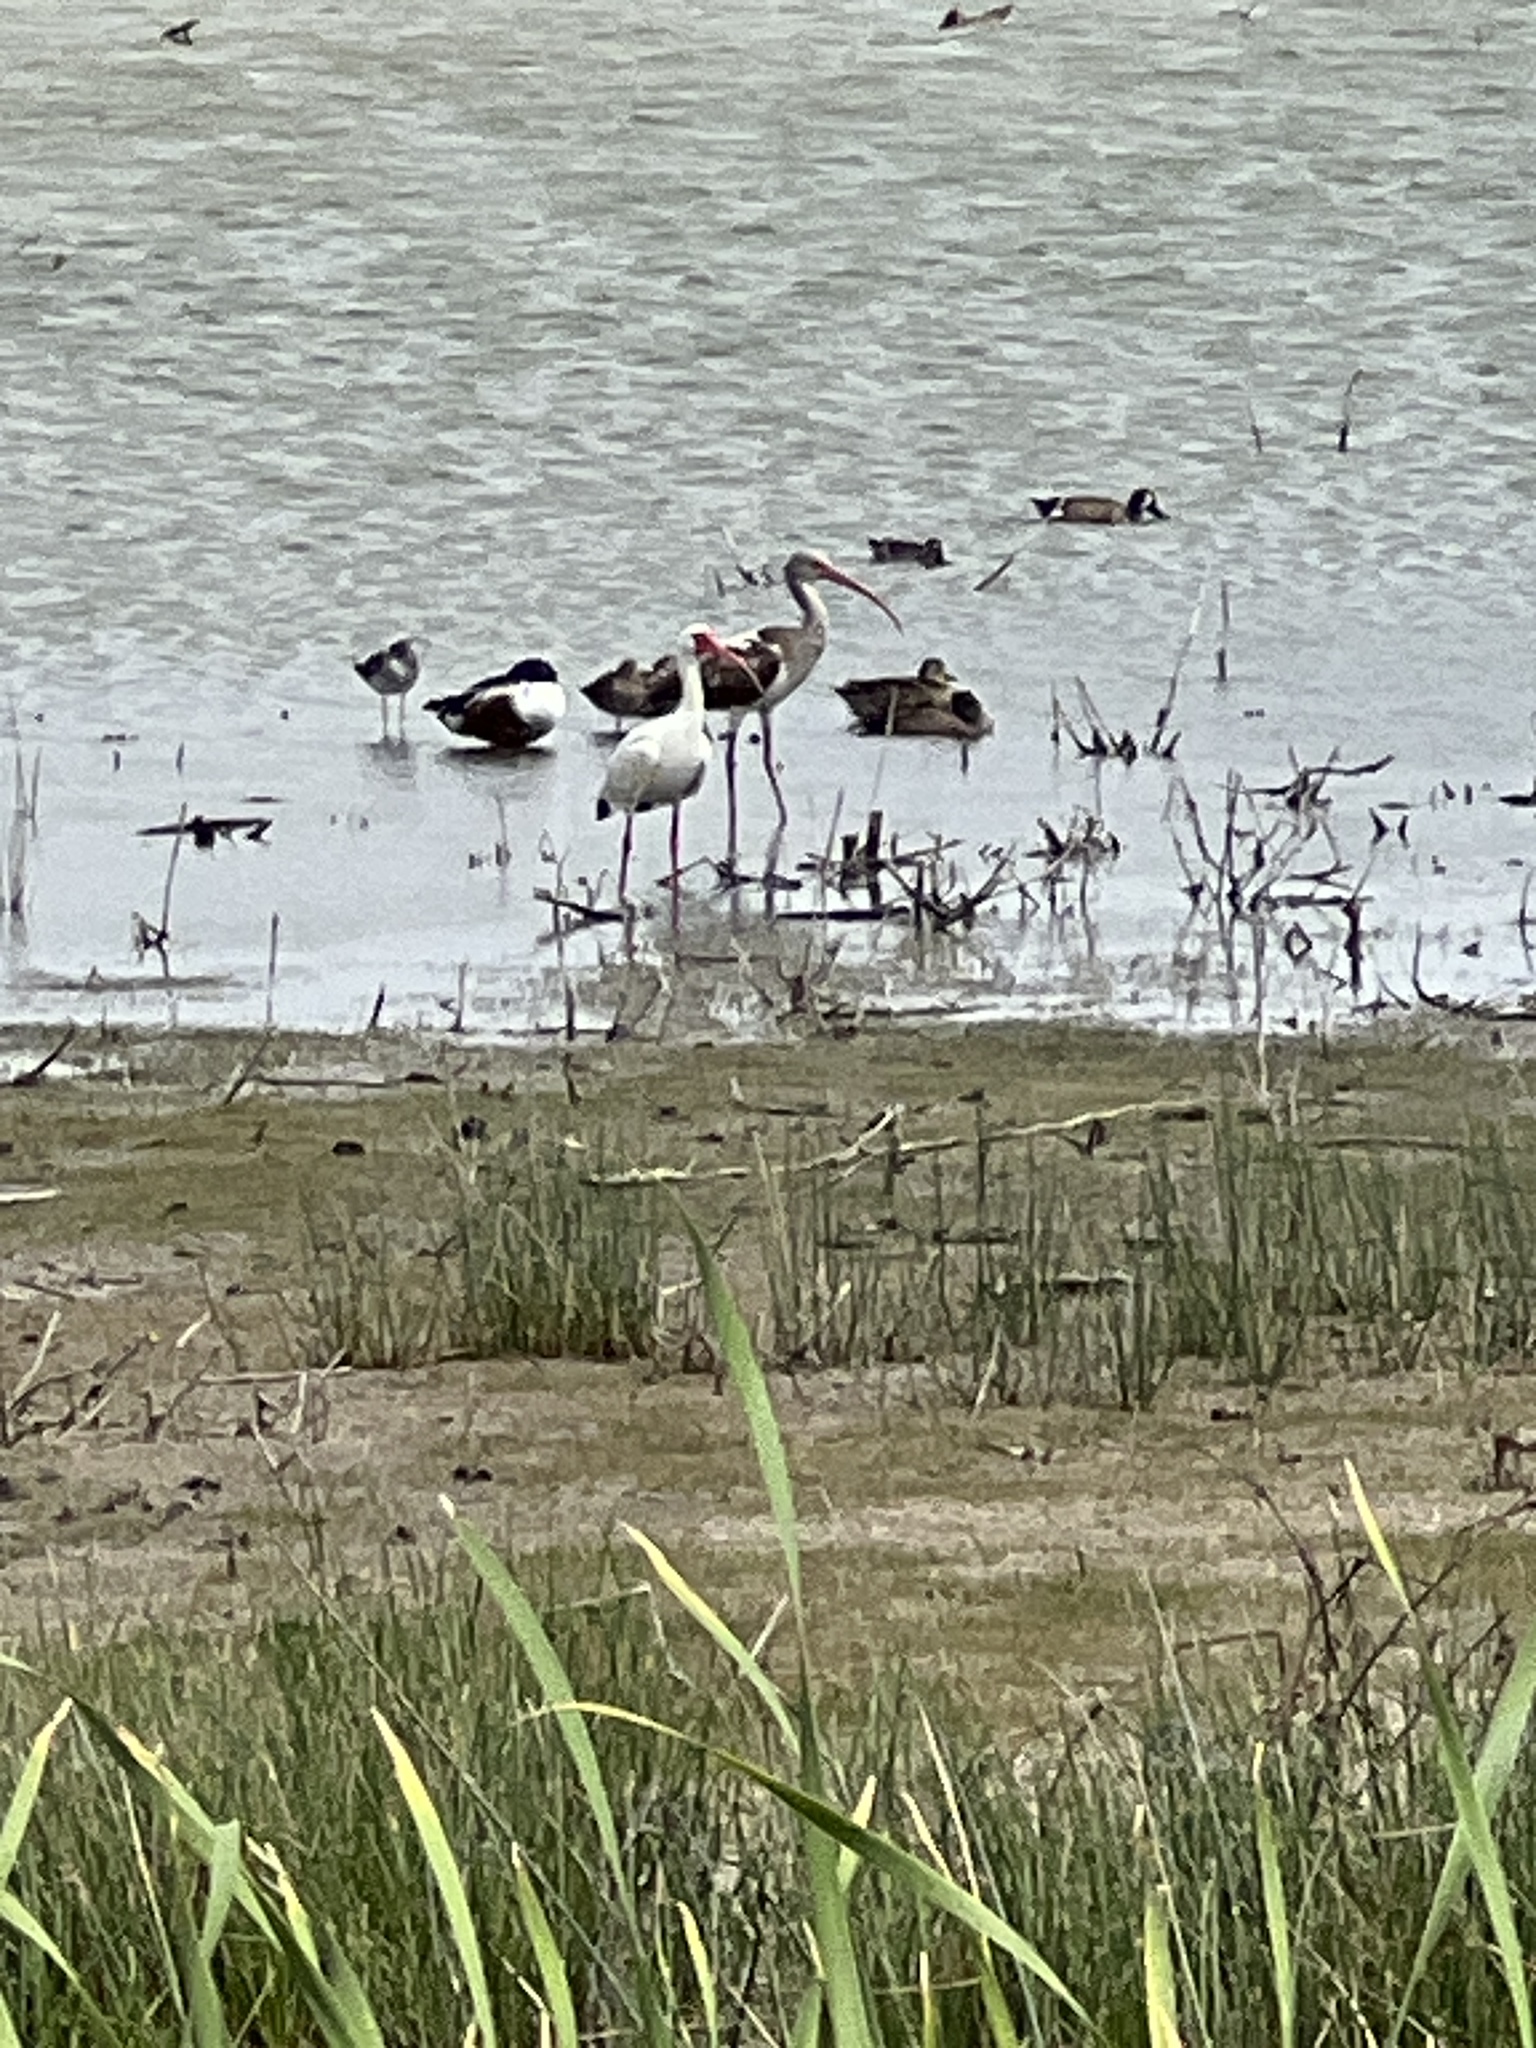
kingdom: Animalia
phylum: Chordata
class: Aves
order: Pelecaniformes
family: Threskiornithidae
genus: Eudocimus
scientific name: Eudocimus albus
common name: White ibis
